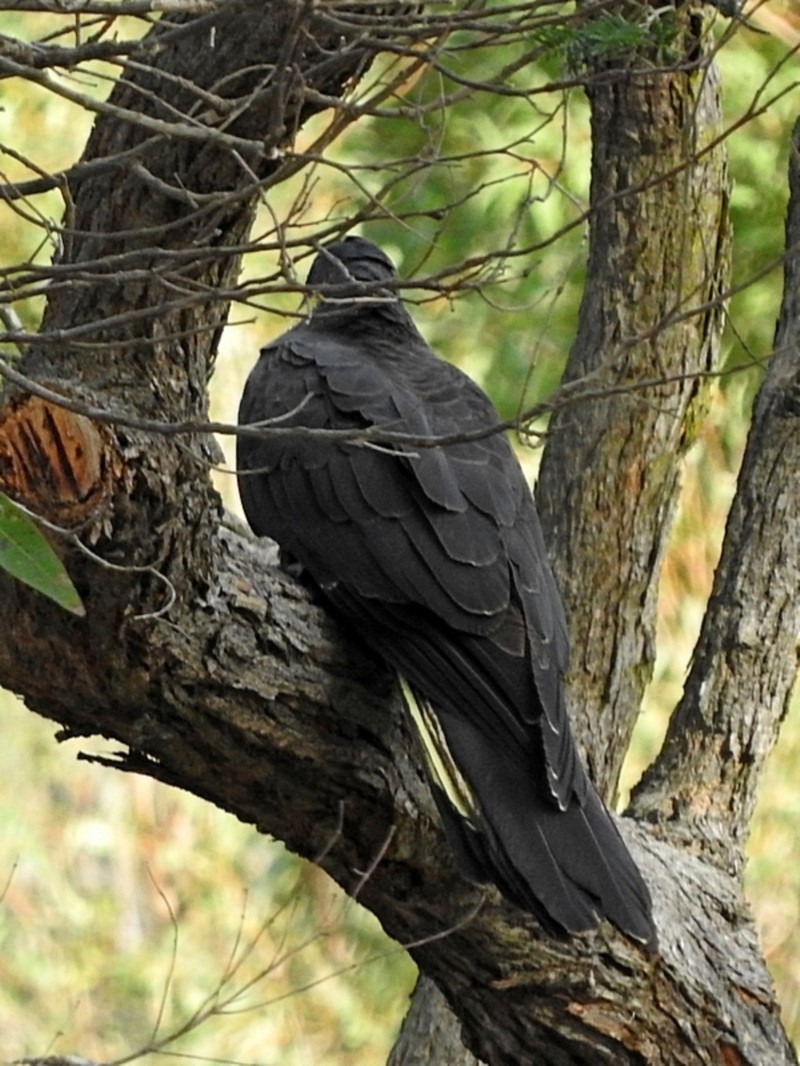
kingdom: Animalia
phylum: Chordata
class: Aves
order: Psittaciformes
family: Cacatuidae
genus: Zanda
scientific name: Zanda funerea
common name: Yellow-tailed black-cockatoo
